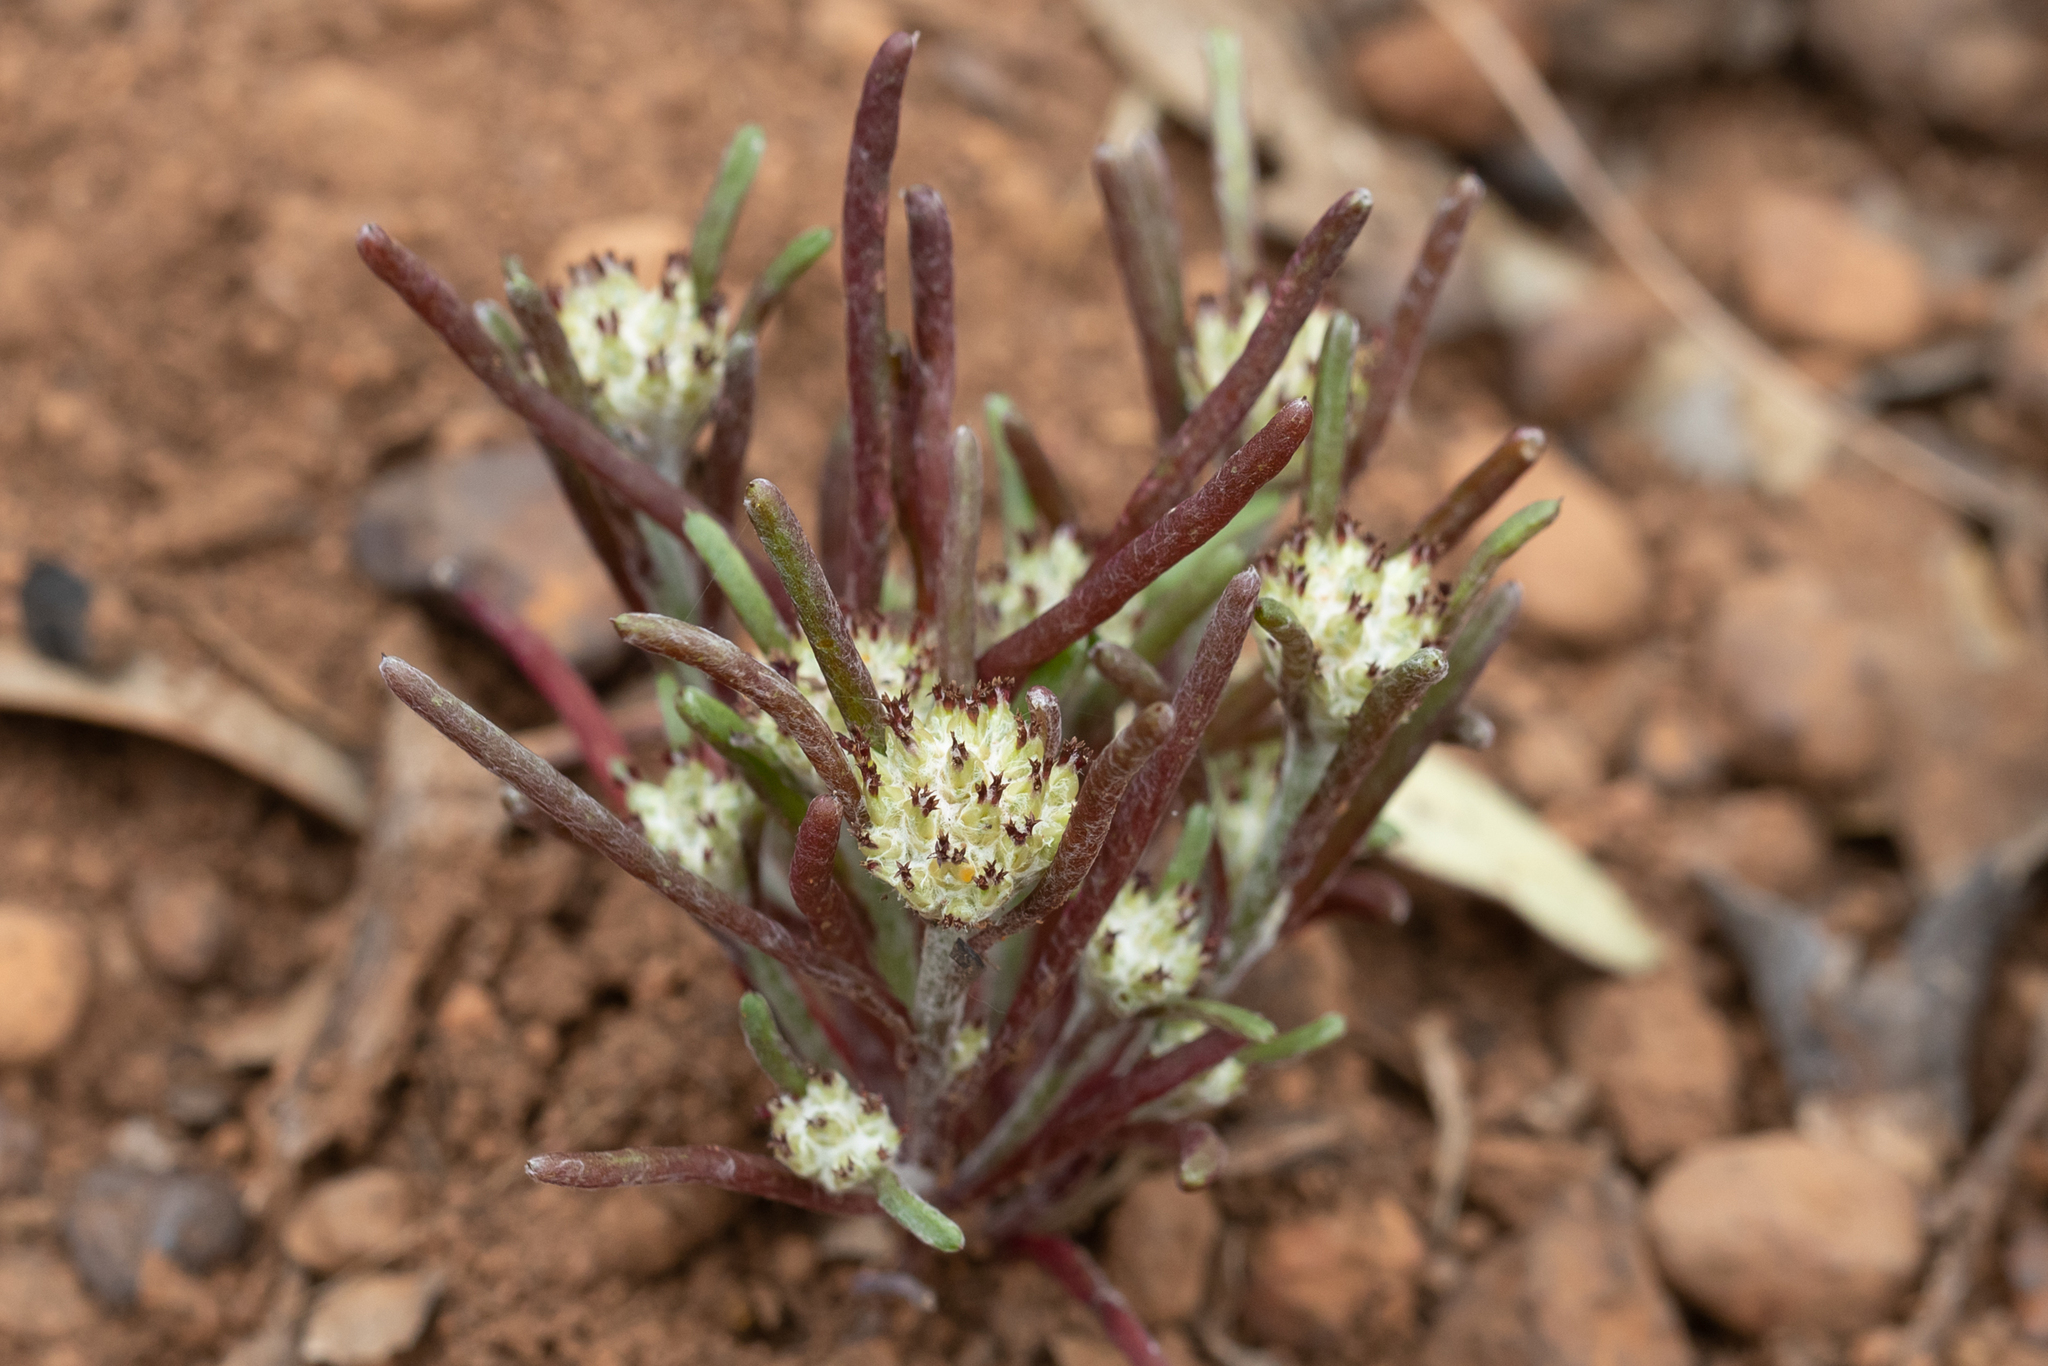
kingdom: Plantae
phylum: Tracheophyta
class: Magnoliopsida
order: Asterales
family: Asteraceae
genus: Blennospora
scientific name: Blennospora drummondii
